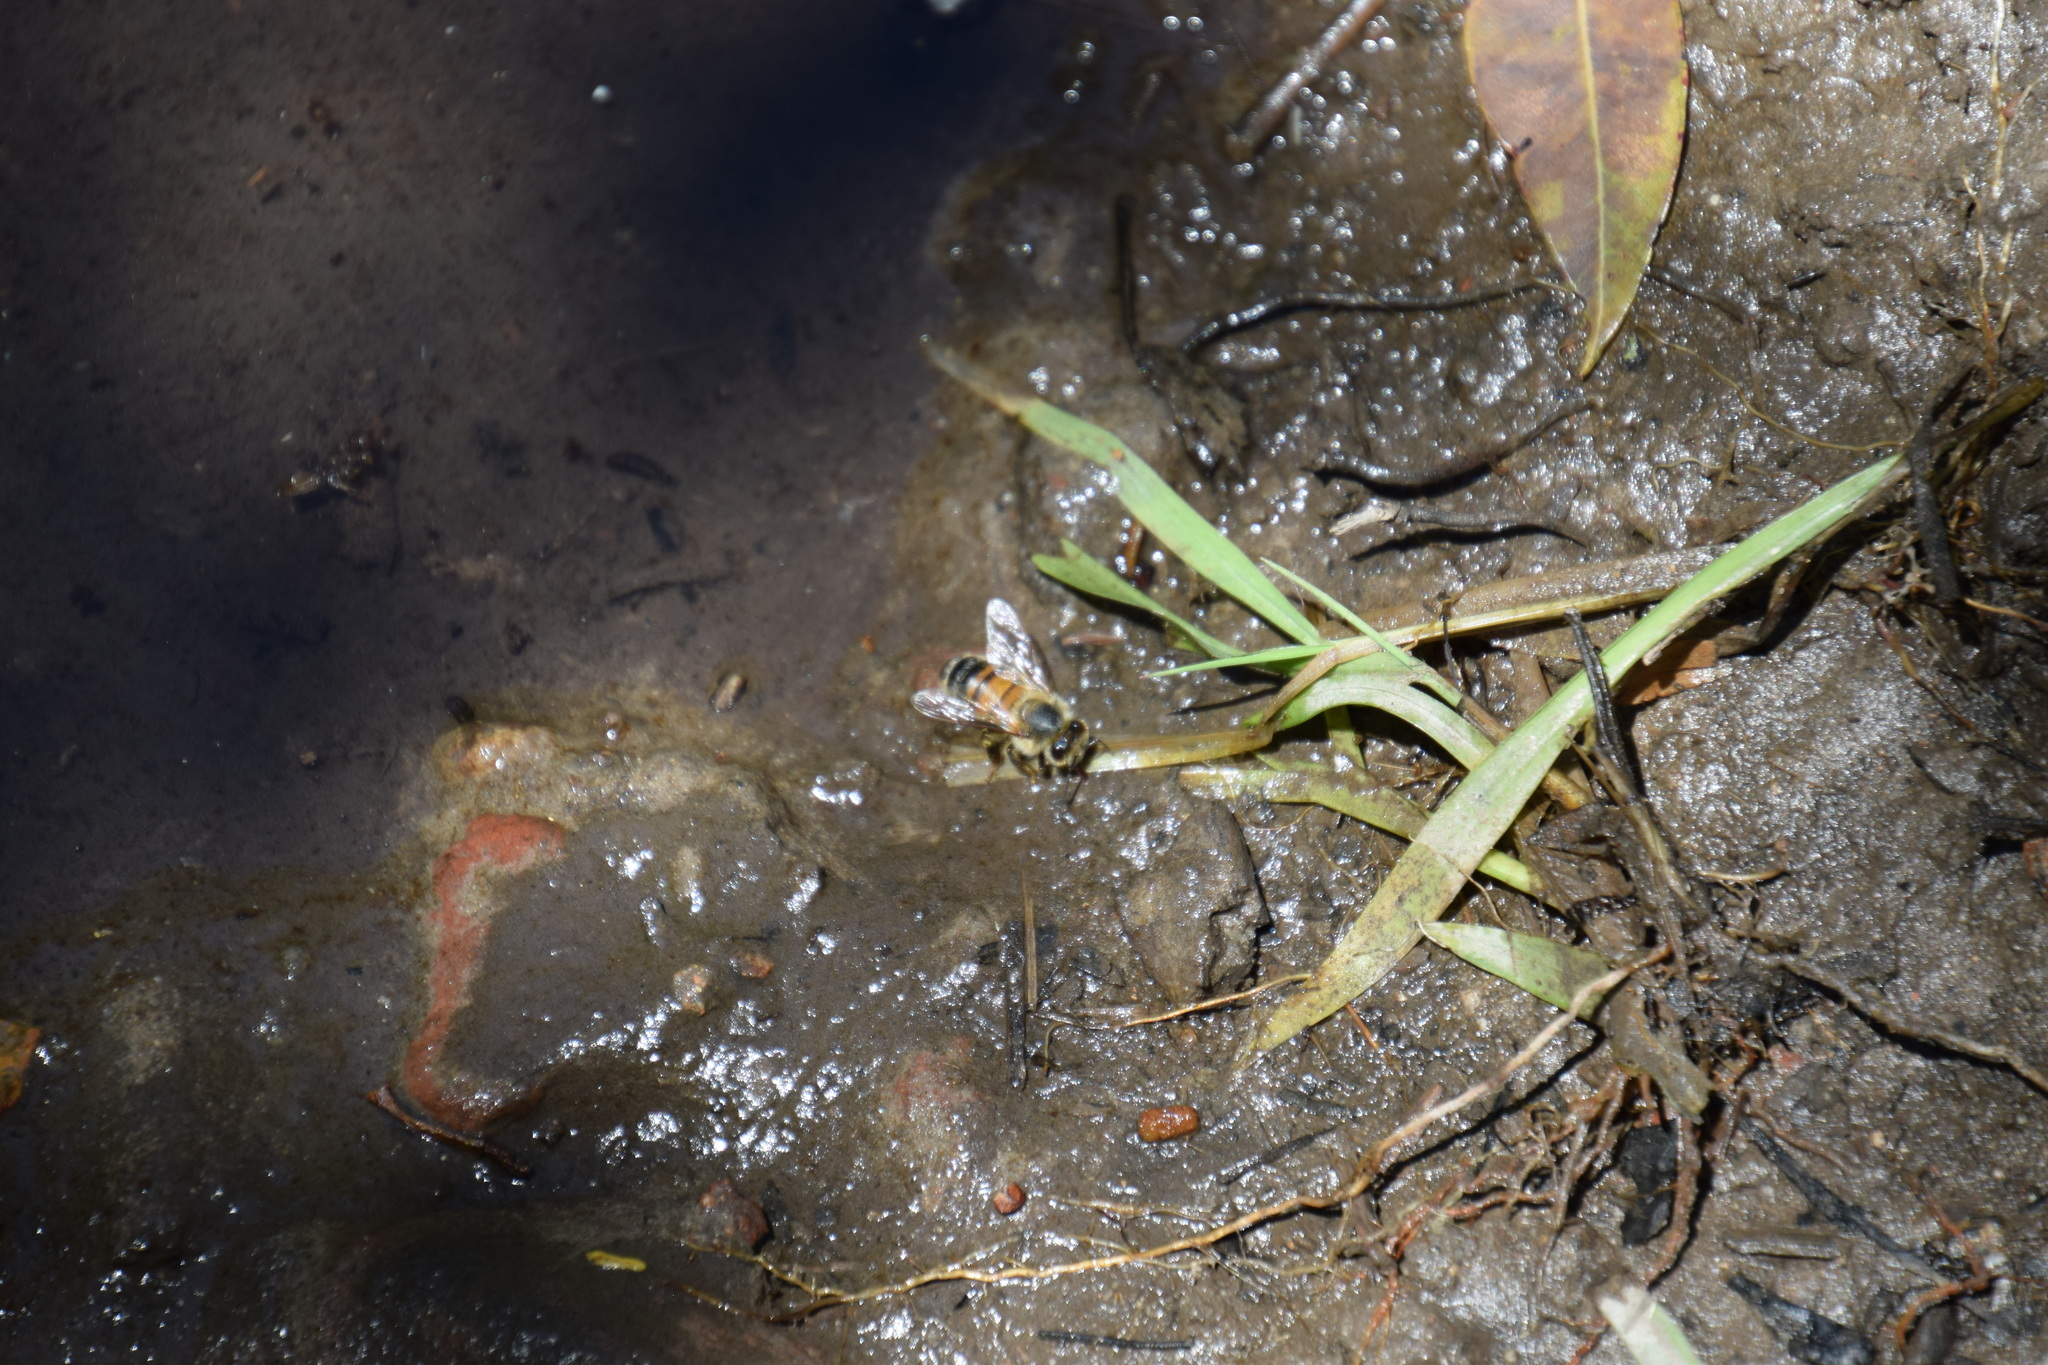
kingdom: Animalia
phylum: Arthropoda
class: Insecta
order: Hymenoptera
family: Apidae
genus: Apis
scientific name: Apis mellifera
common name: Honey bee
